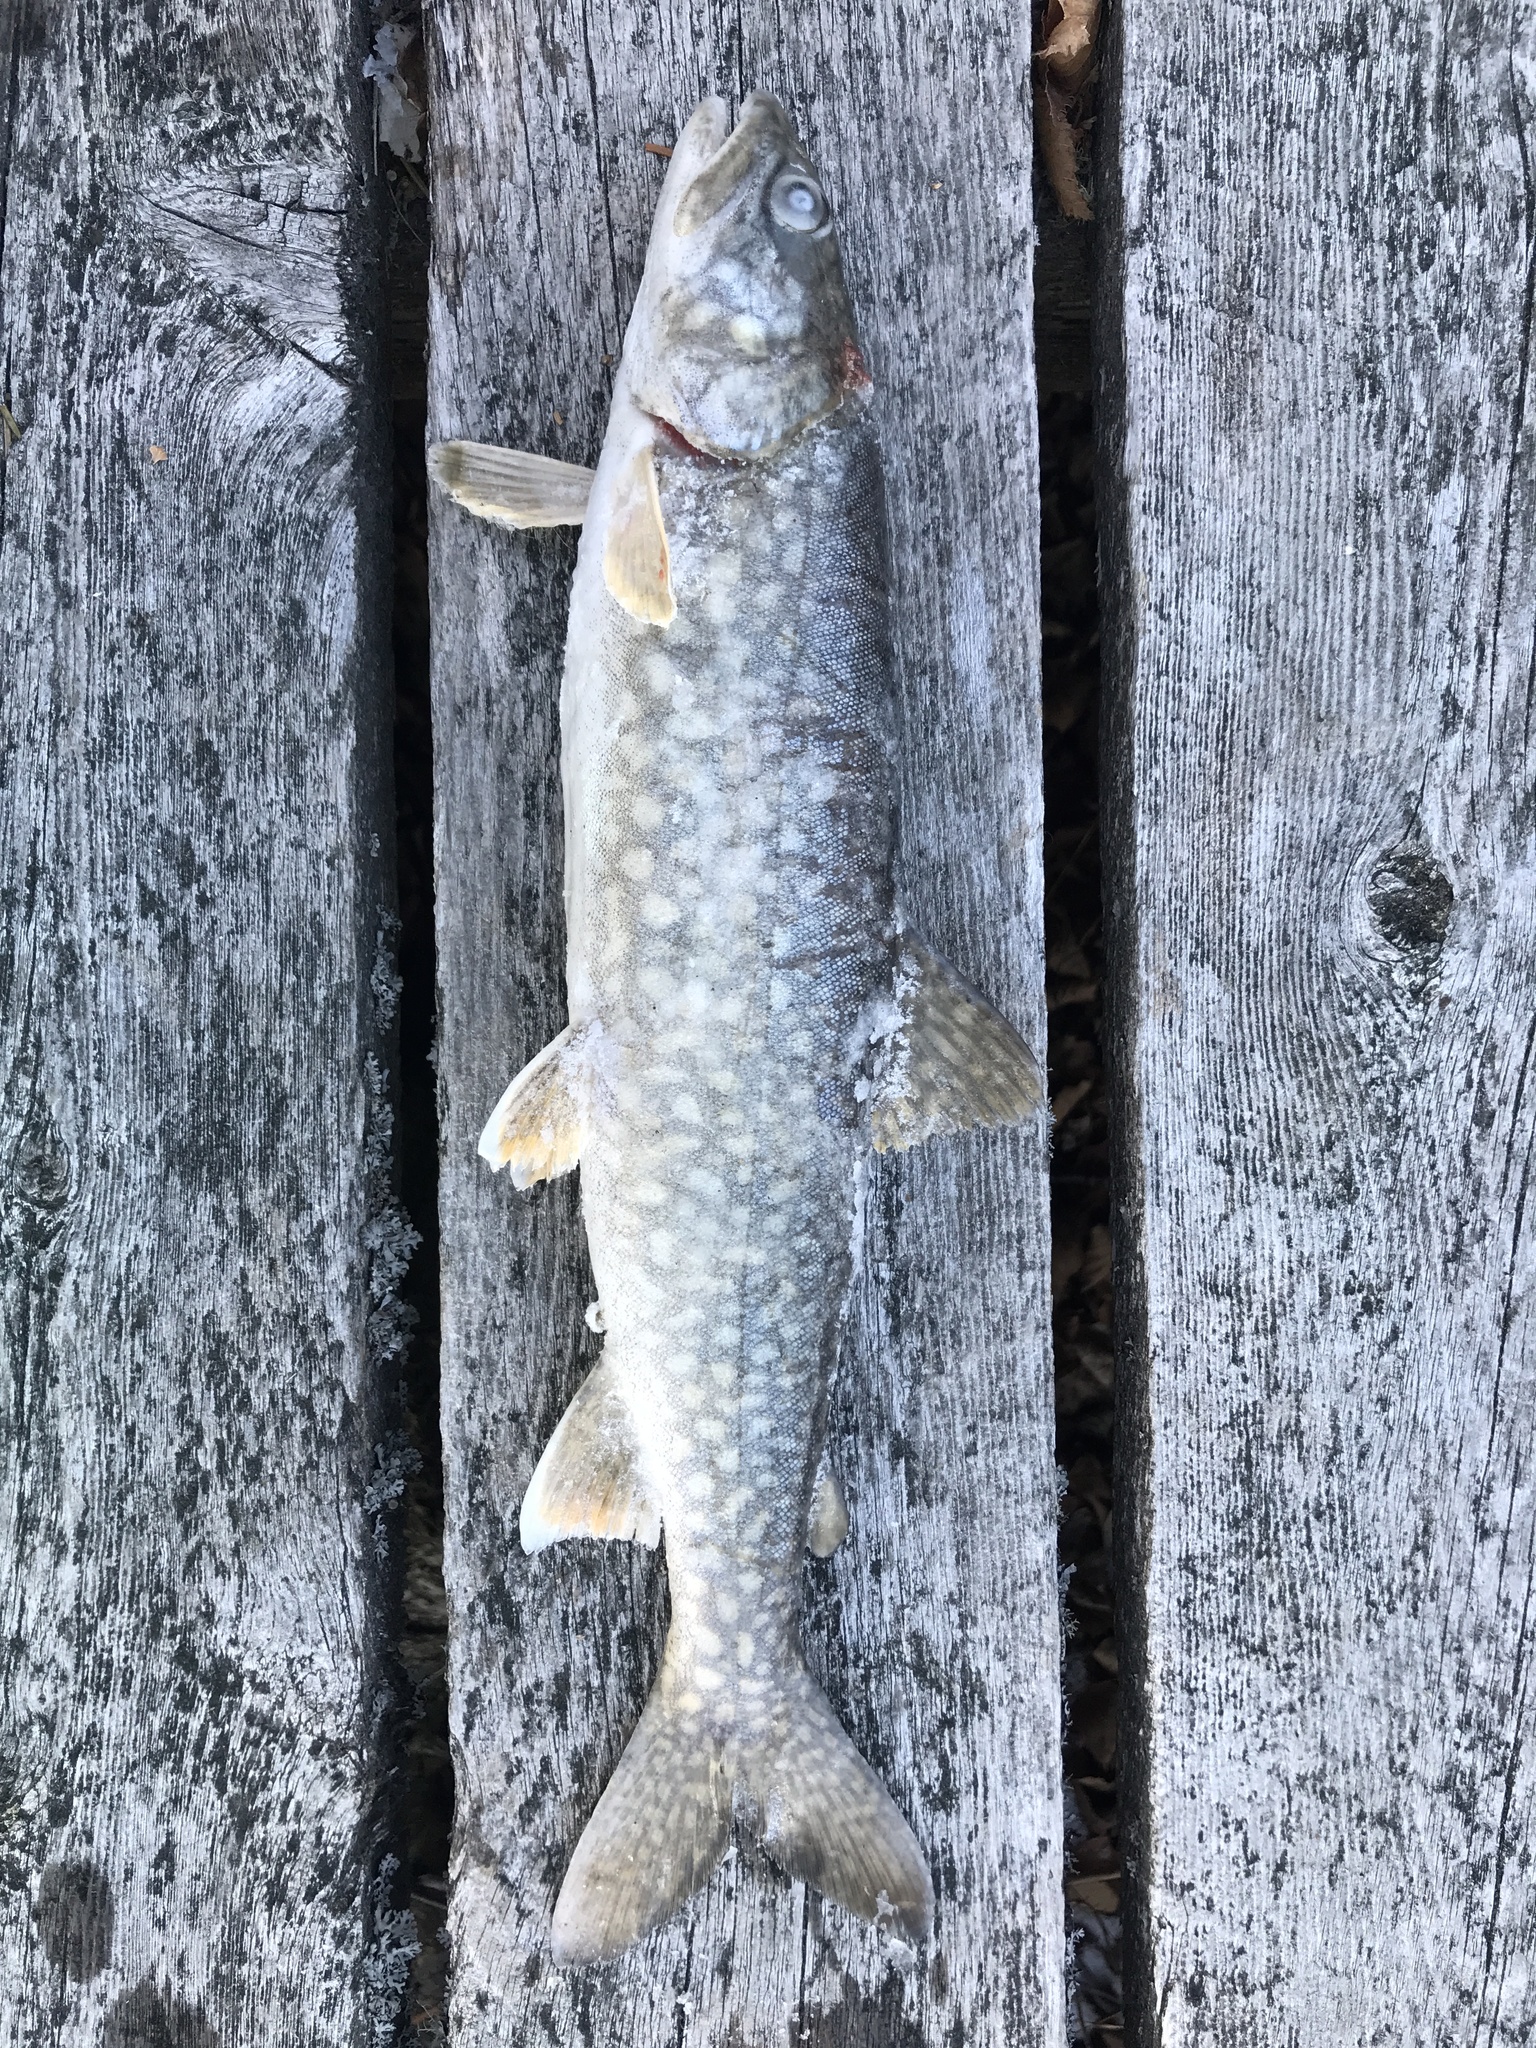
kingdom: Animalia
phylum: Chordata
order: Salmoniformes
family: Salmonidae
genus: Salvelinus
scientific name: Salvelinus namaycush
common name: American lake charr
